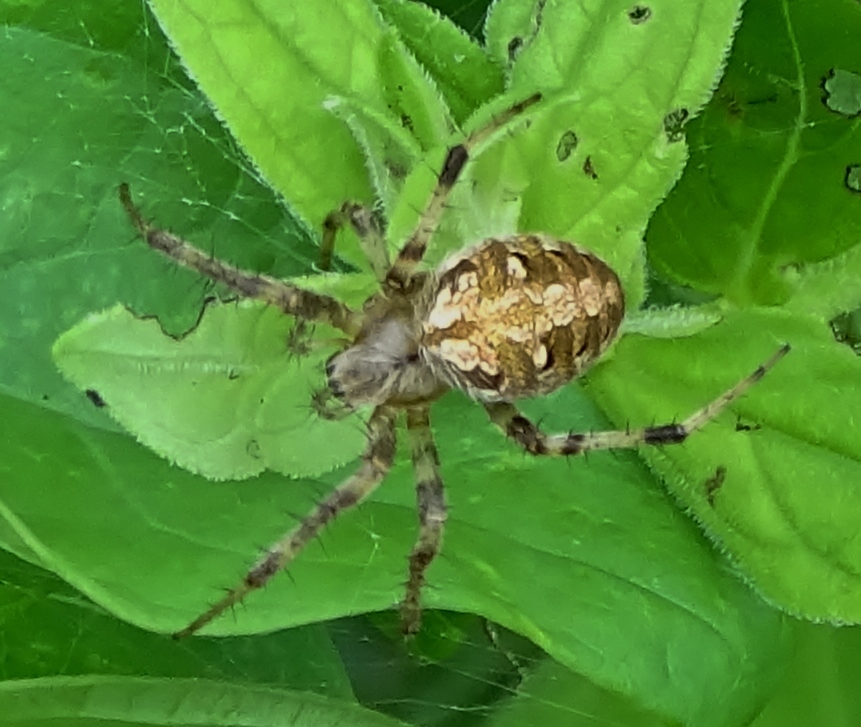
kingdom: Animalia
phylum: Arthropoda
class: Arachnida
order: Araneae
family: Araneidae
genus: Neoscona
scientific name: Neoscona arabesca
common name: Orb weavers
